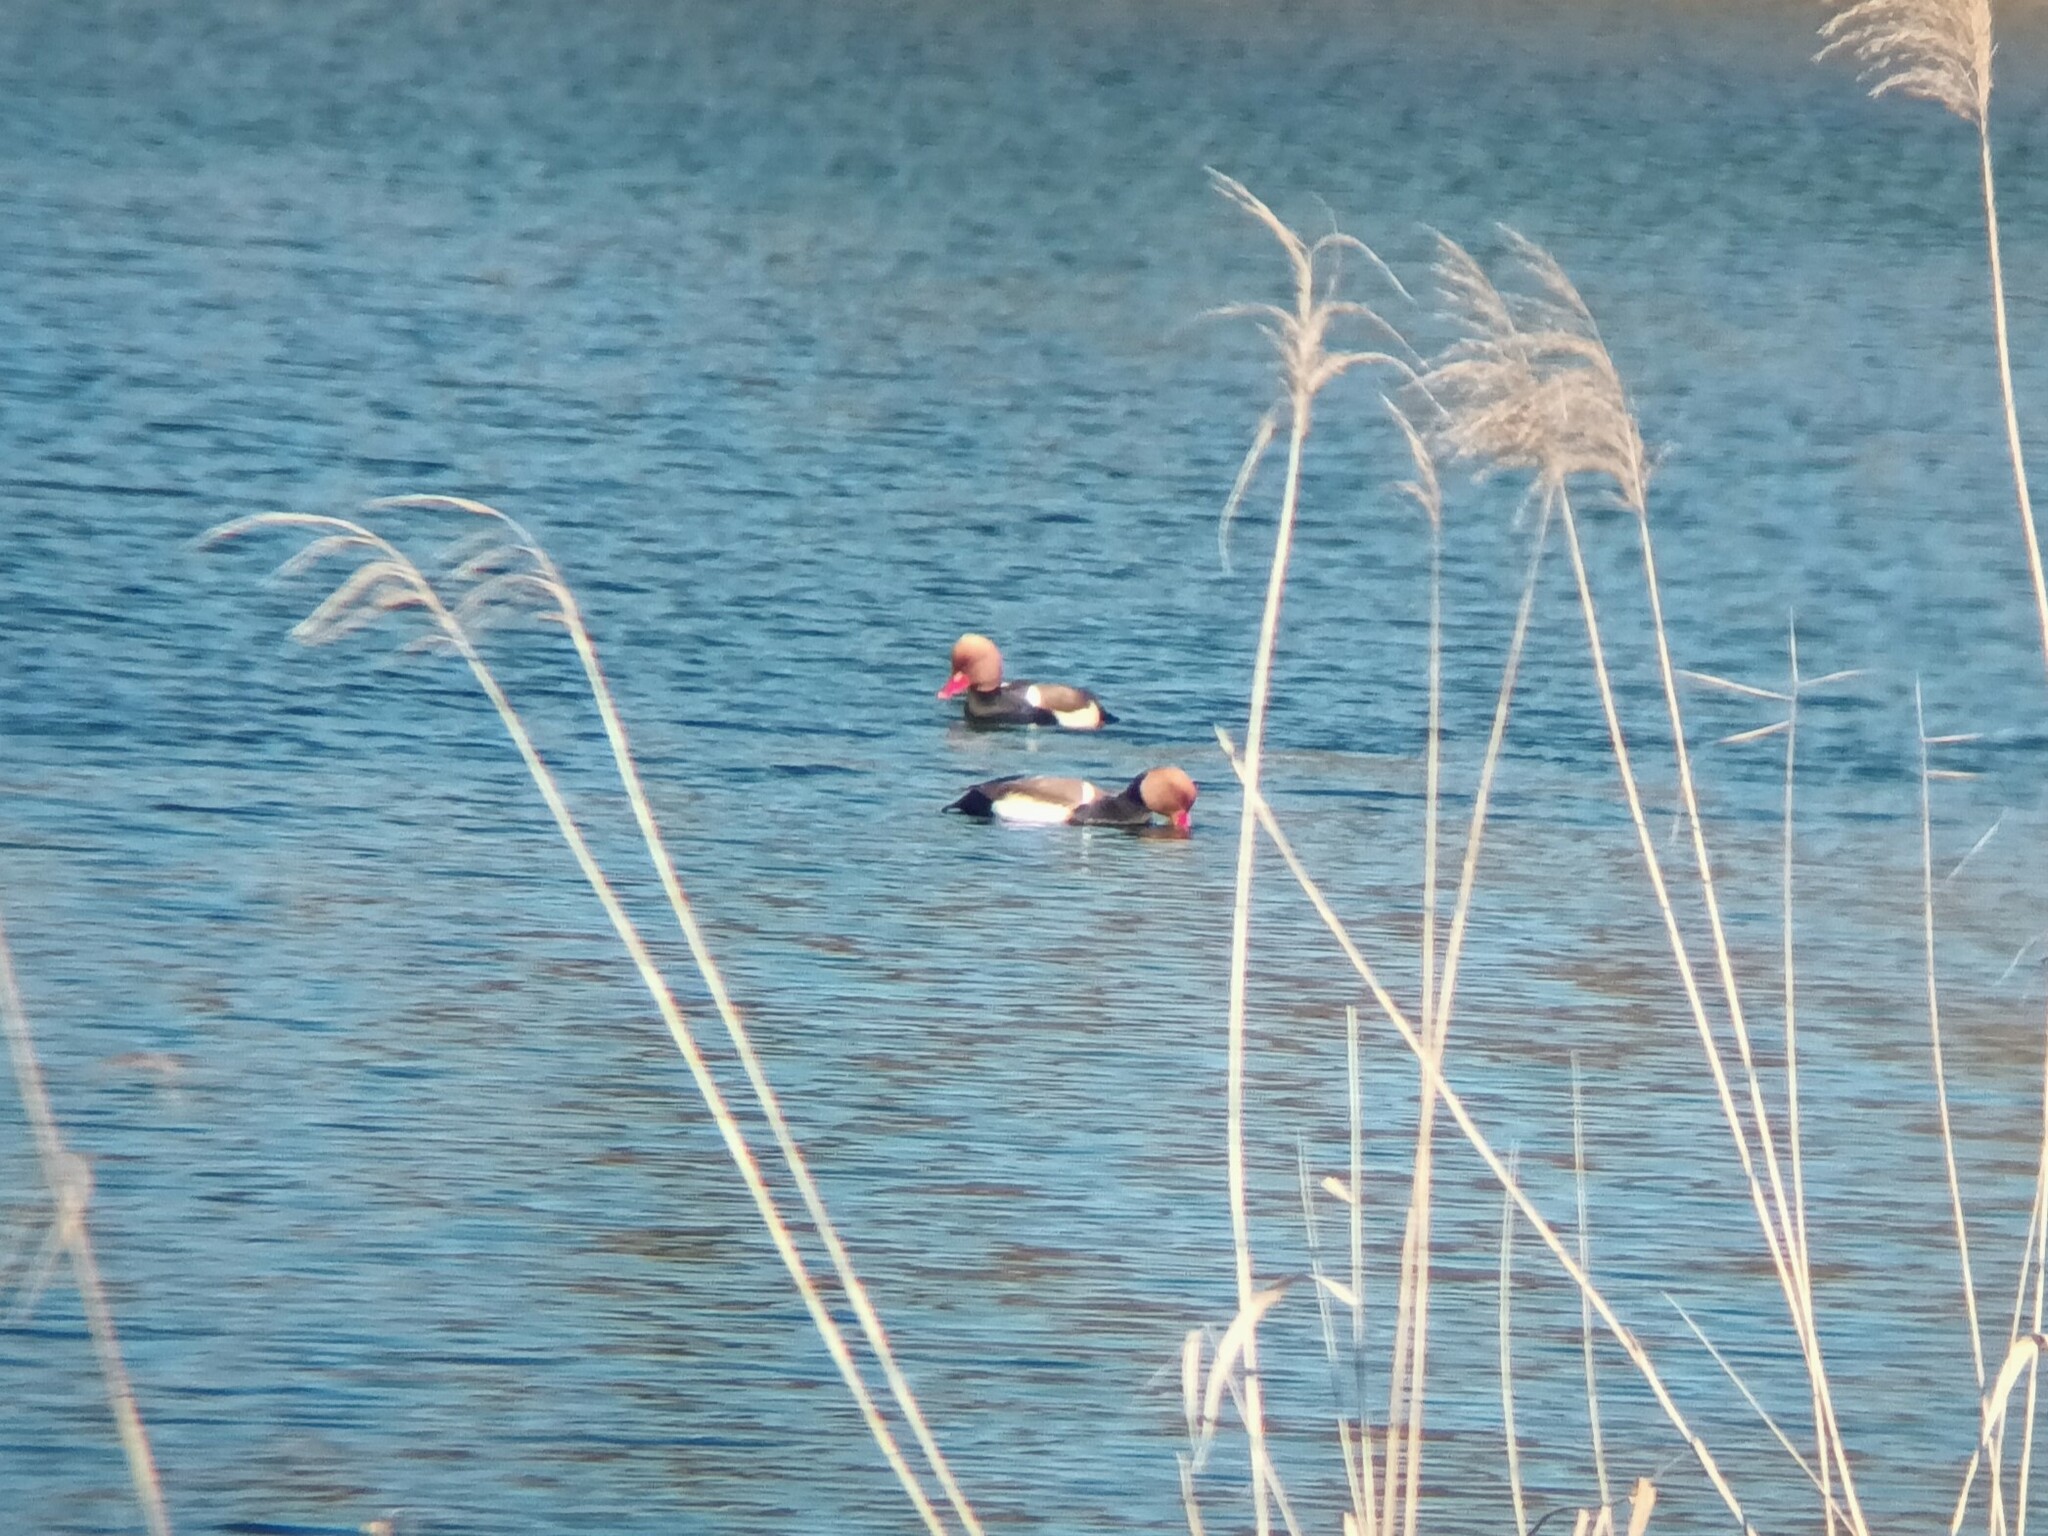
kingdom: Animalia
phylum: Chordata
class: Aves
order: Anseriformes
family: Anatidae
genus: Netta
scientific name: Netta rufina
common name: Red-crested pochard
